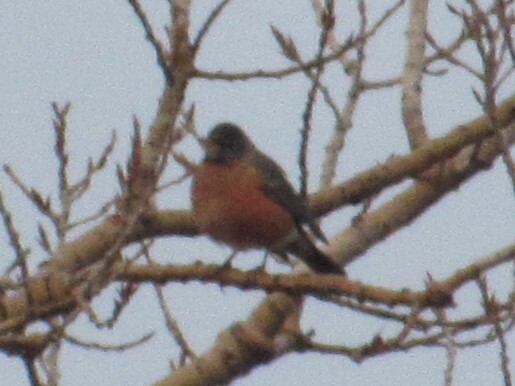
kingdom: Animalia
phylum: Chordata
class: Aves
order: Passeriformes
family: Turdidae
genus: Turdus
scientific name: Turdus migratorius
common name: American robin
